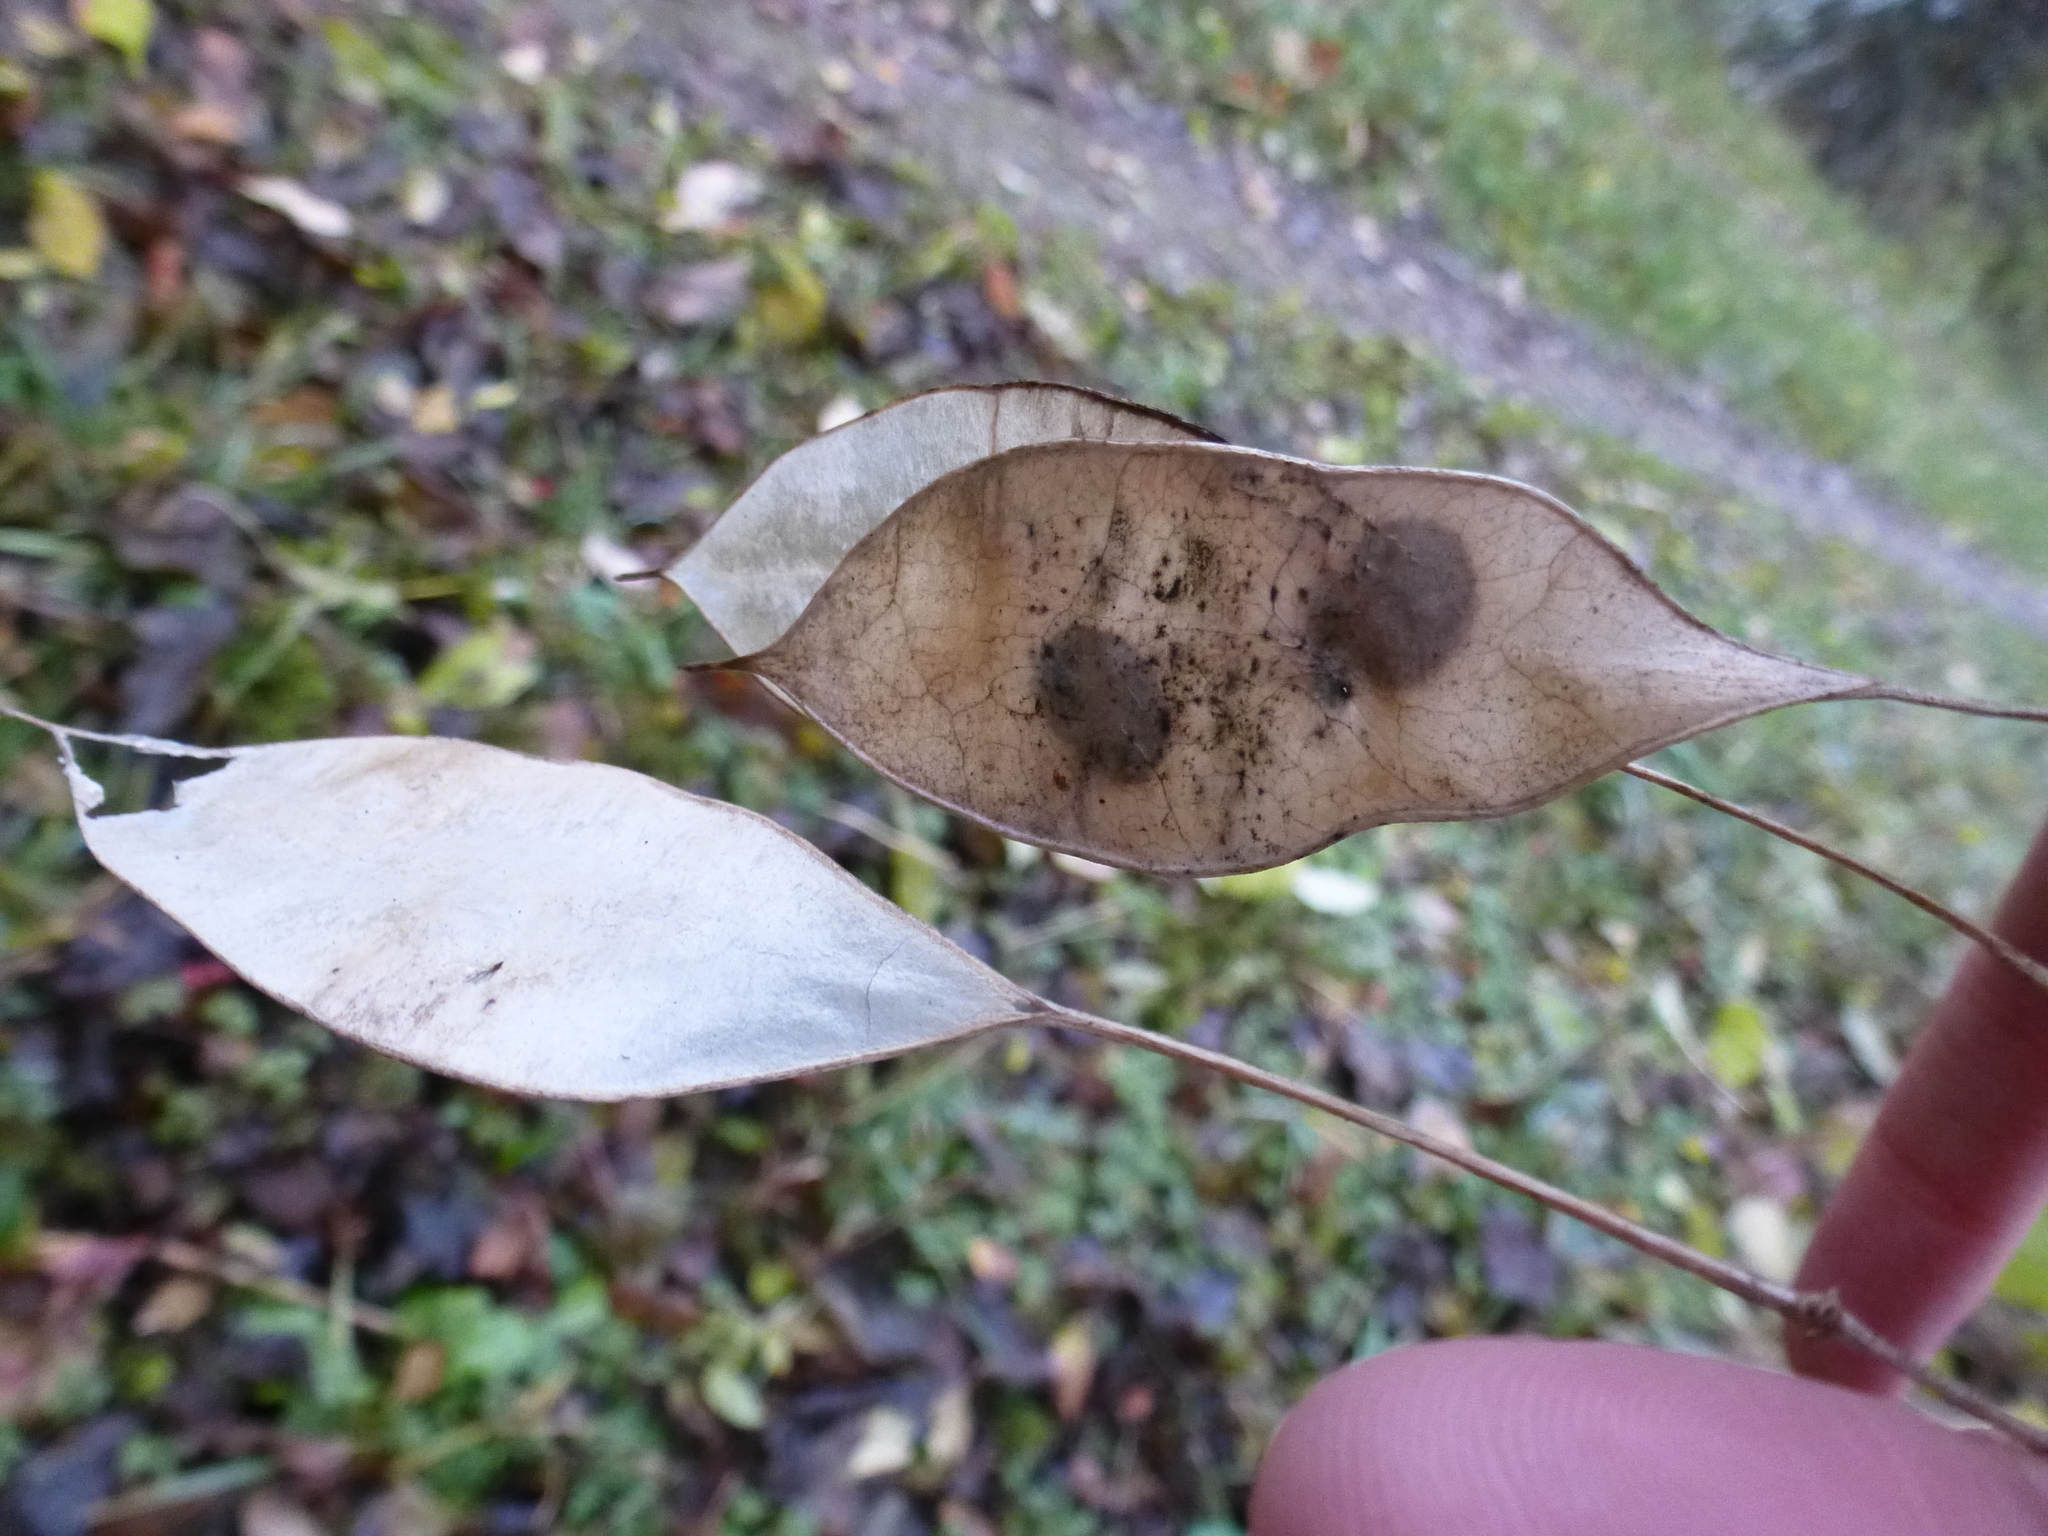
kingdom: Plantae
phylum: Tracheophyta
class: Magnoliopsida
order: Brassicales
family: Brassicaceae
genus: Lunaria
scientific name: Lunaria rediviva
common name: Perennial honesty
